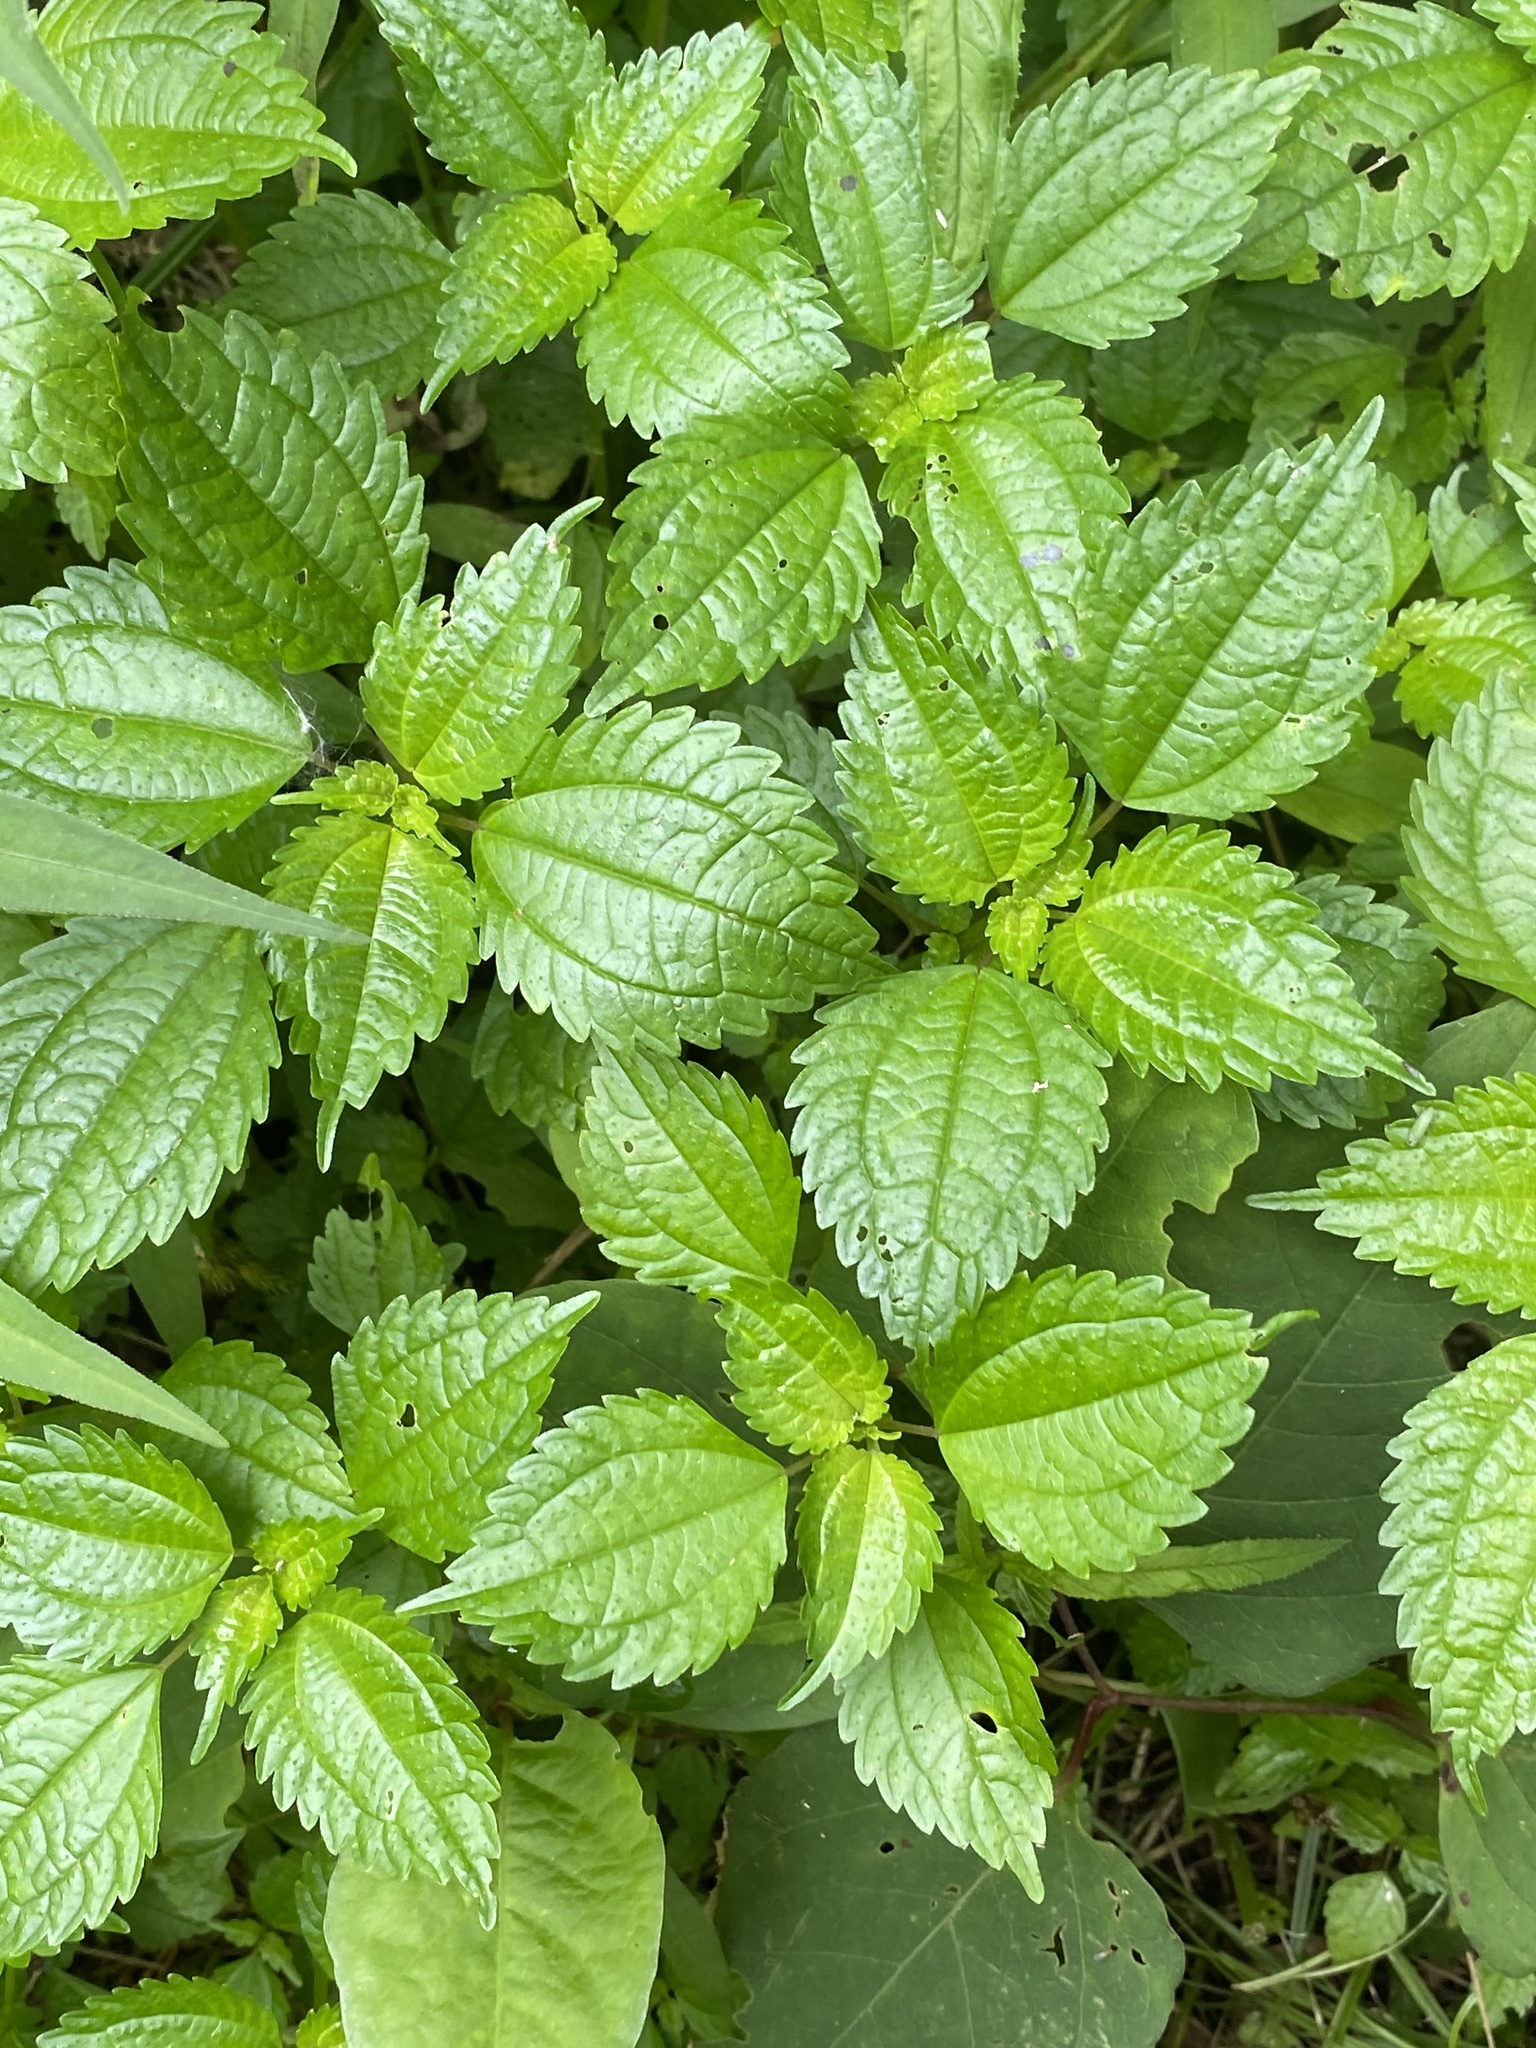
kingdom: Plantae
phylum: Tracheophyta
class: Magnoliopsida
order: Rosales
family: Urticaceae
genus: Pilea
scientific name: Pilea pumila
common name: Clearweed
